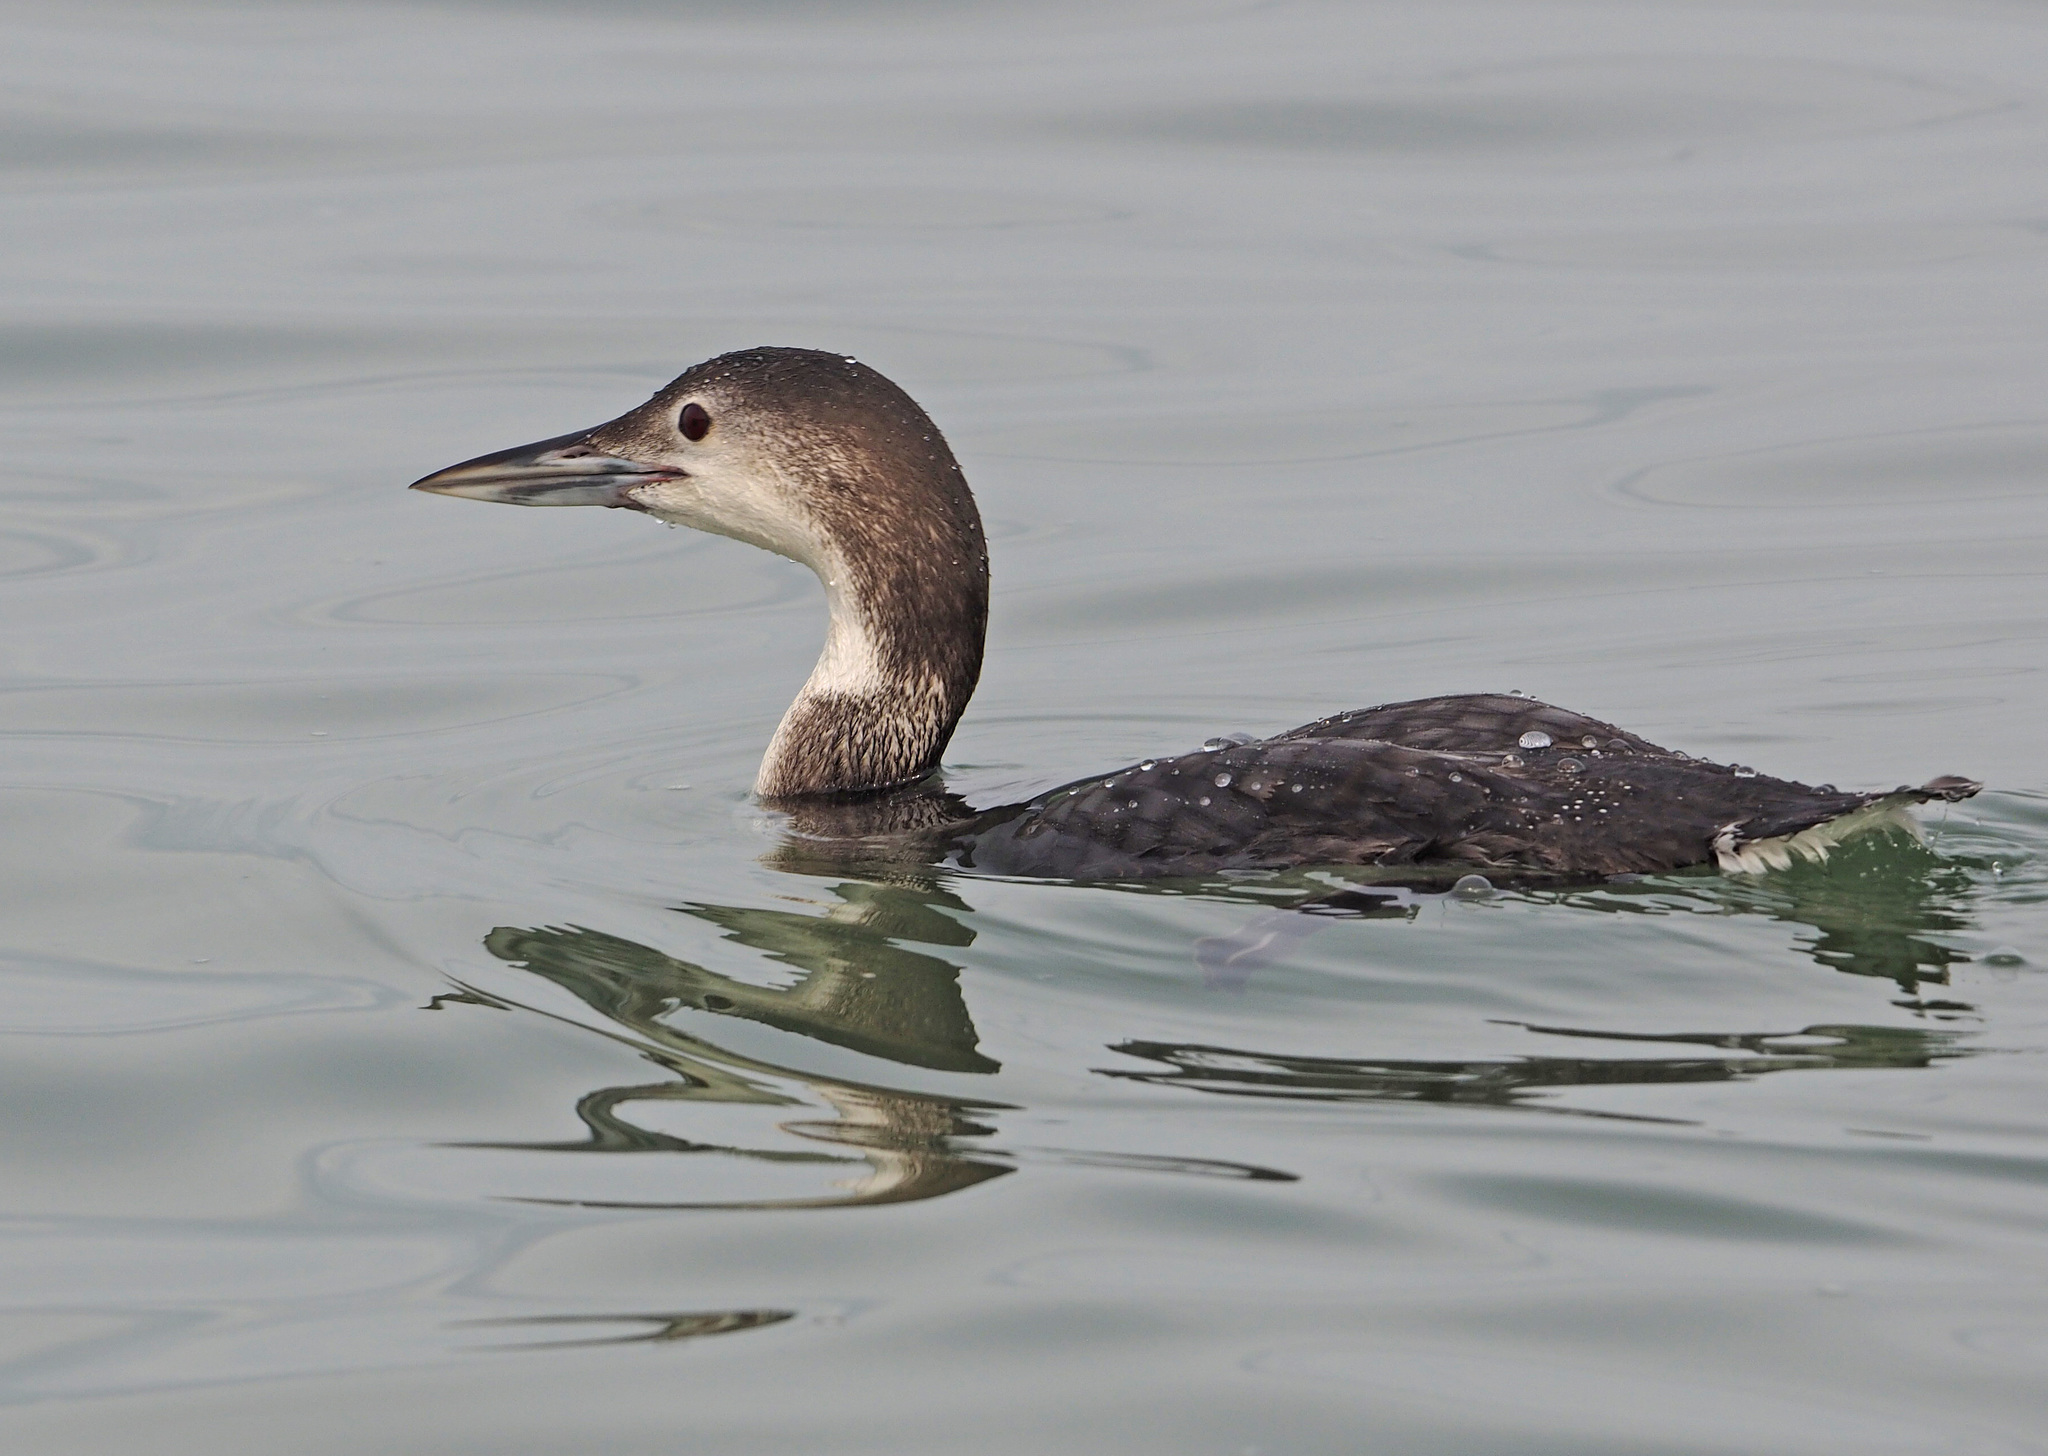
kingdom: Animalia
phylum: Chordata
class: Aves
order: Gaviiformes
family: Gaviidae
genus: Gavia
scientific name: Gavia immer
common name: Common loon
